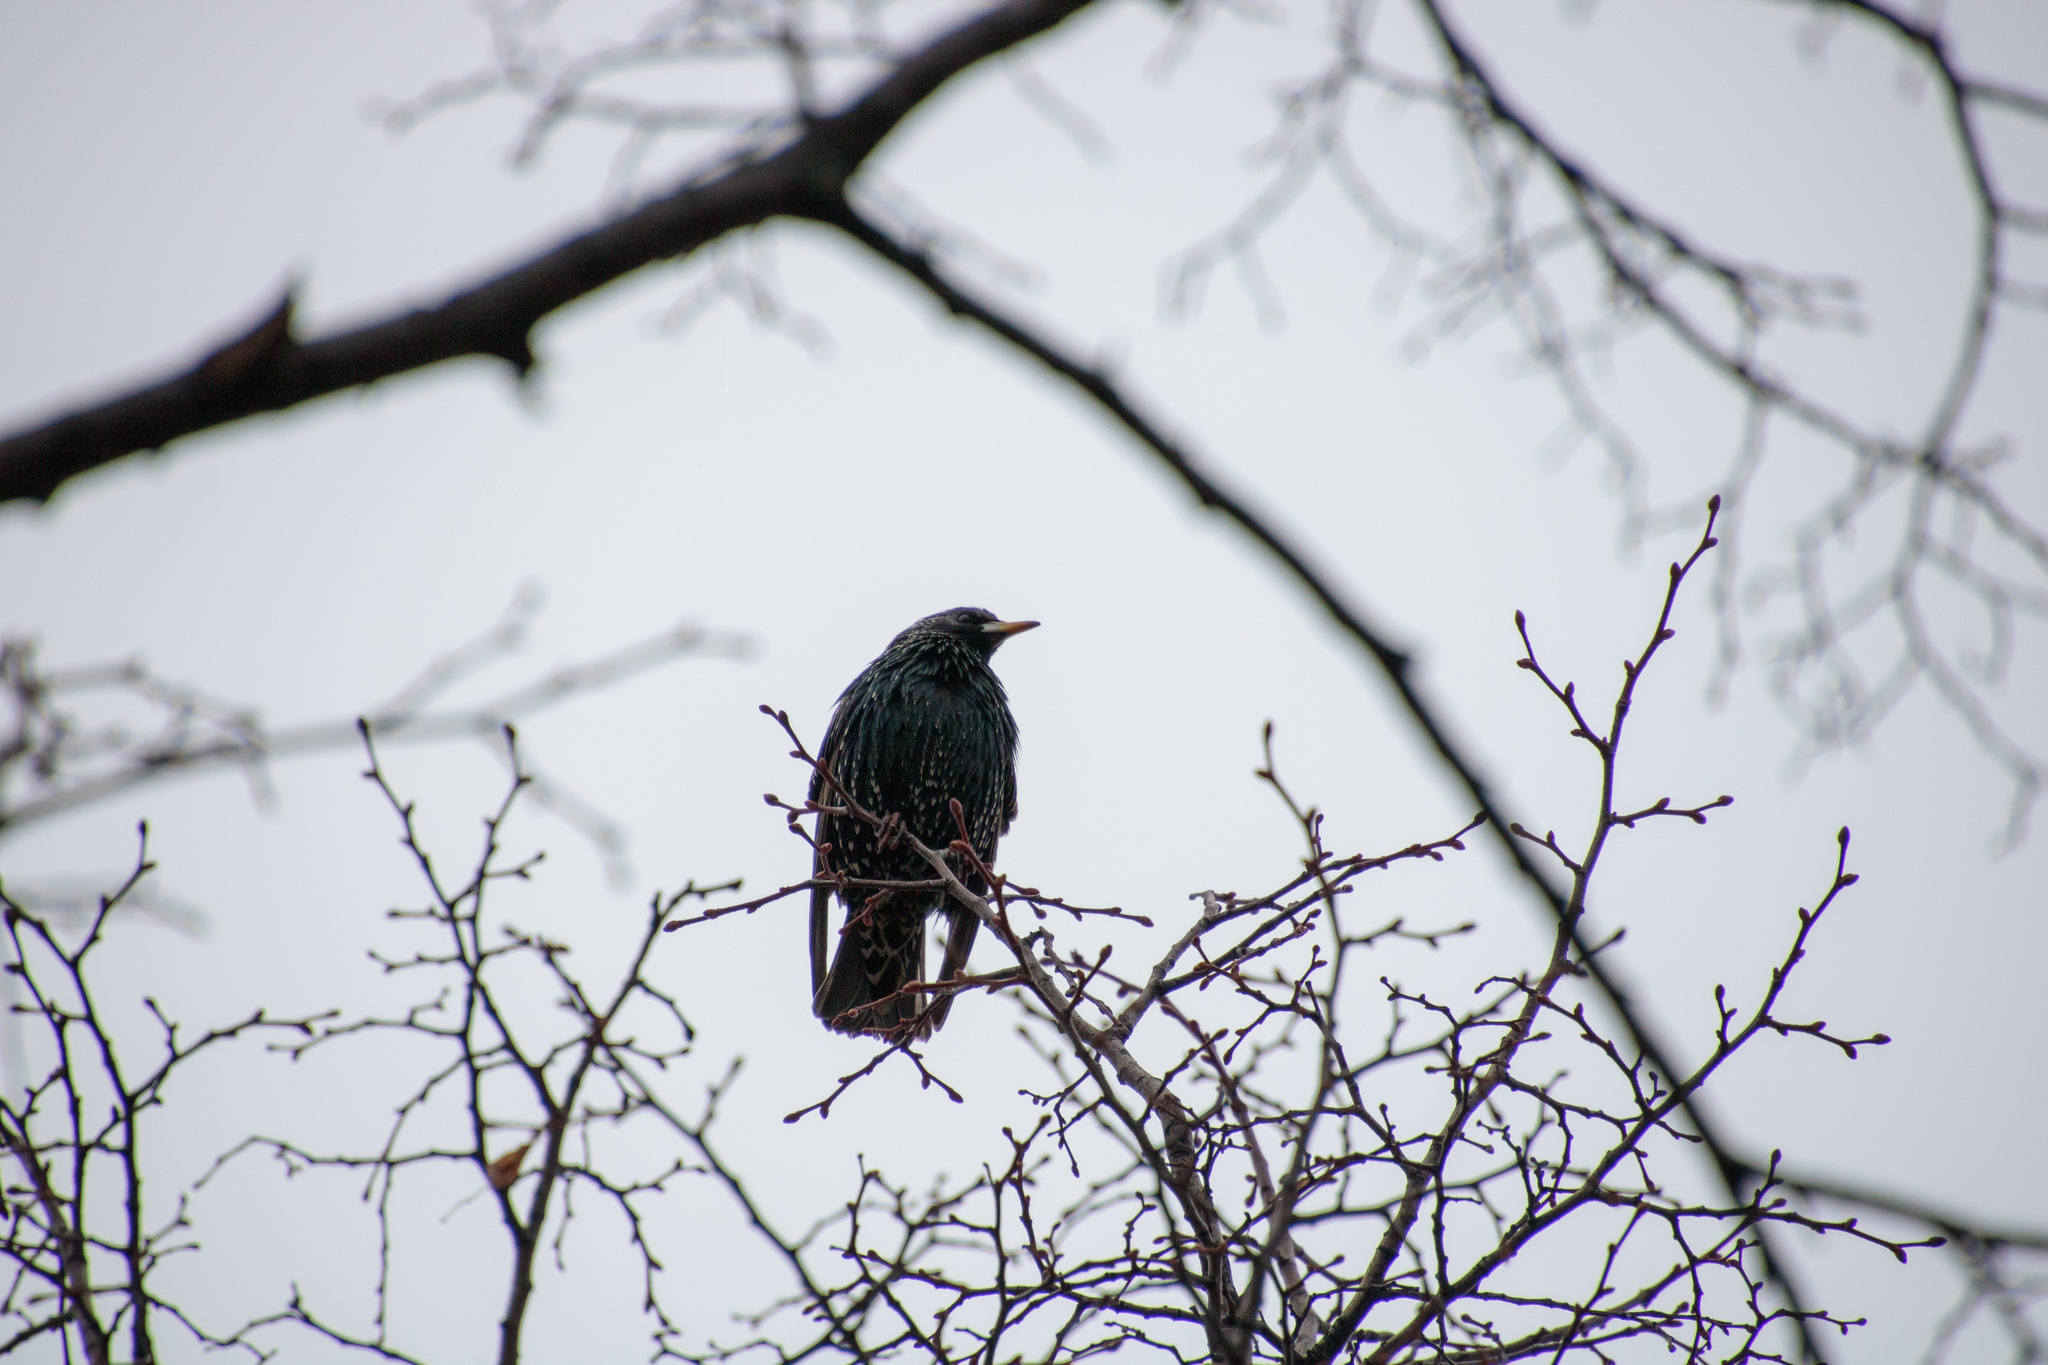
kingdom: Animalia
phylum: Chordata
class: Aves
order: Passeriformes
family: Sturnidae
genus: Sturnus
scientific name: Sturnus vulgaris
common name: Common starling
